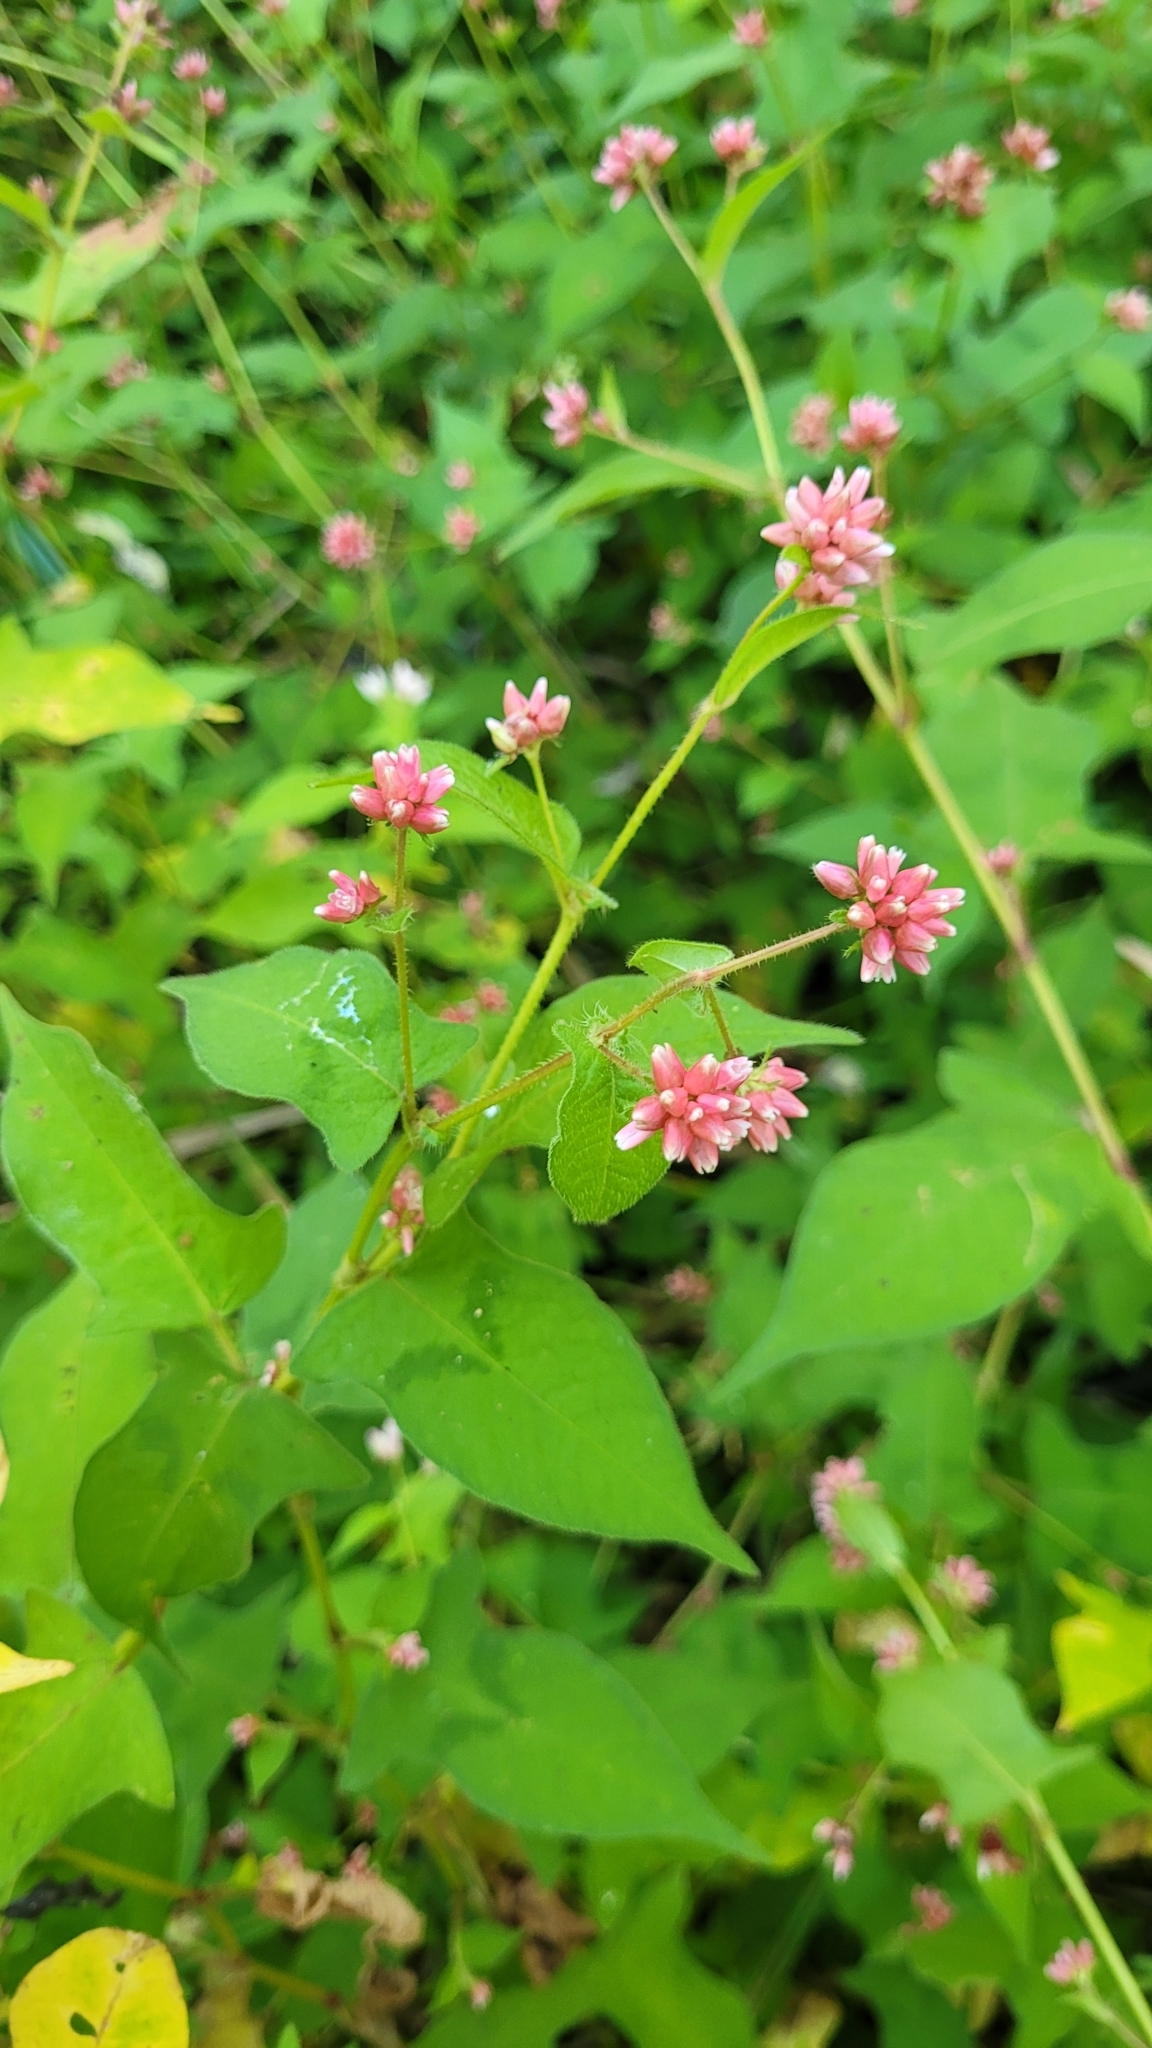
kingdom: Plantae
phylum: Tracheophyta
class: Magnoliopsida
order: Caryophyllales
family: Polygonaceae
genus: Persicaria
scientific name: Persicaria thunbergii
